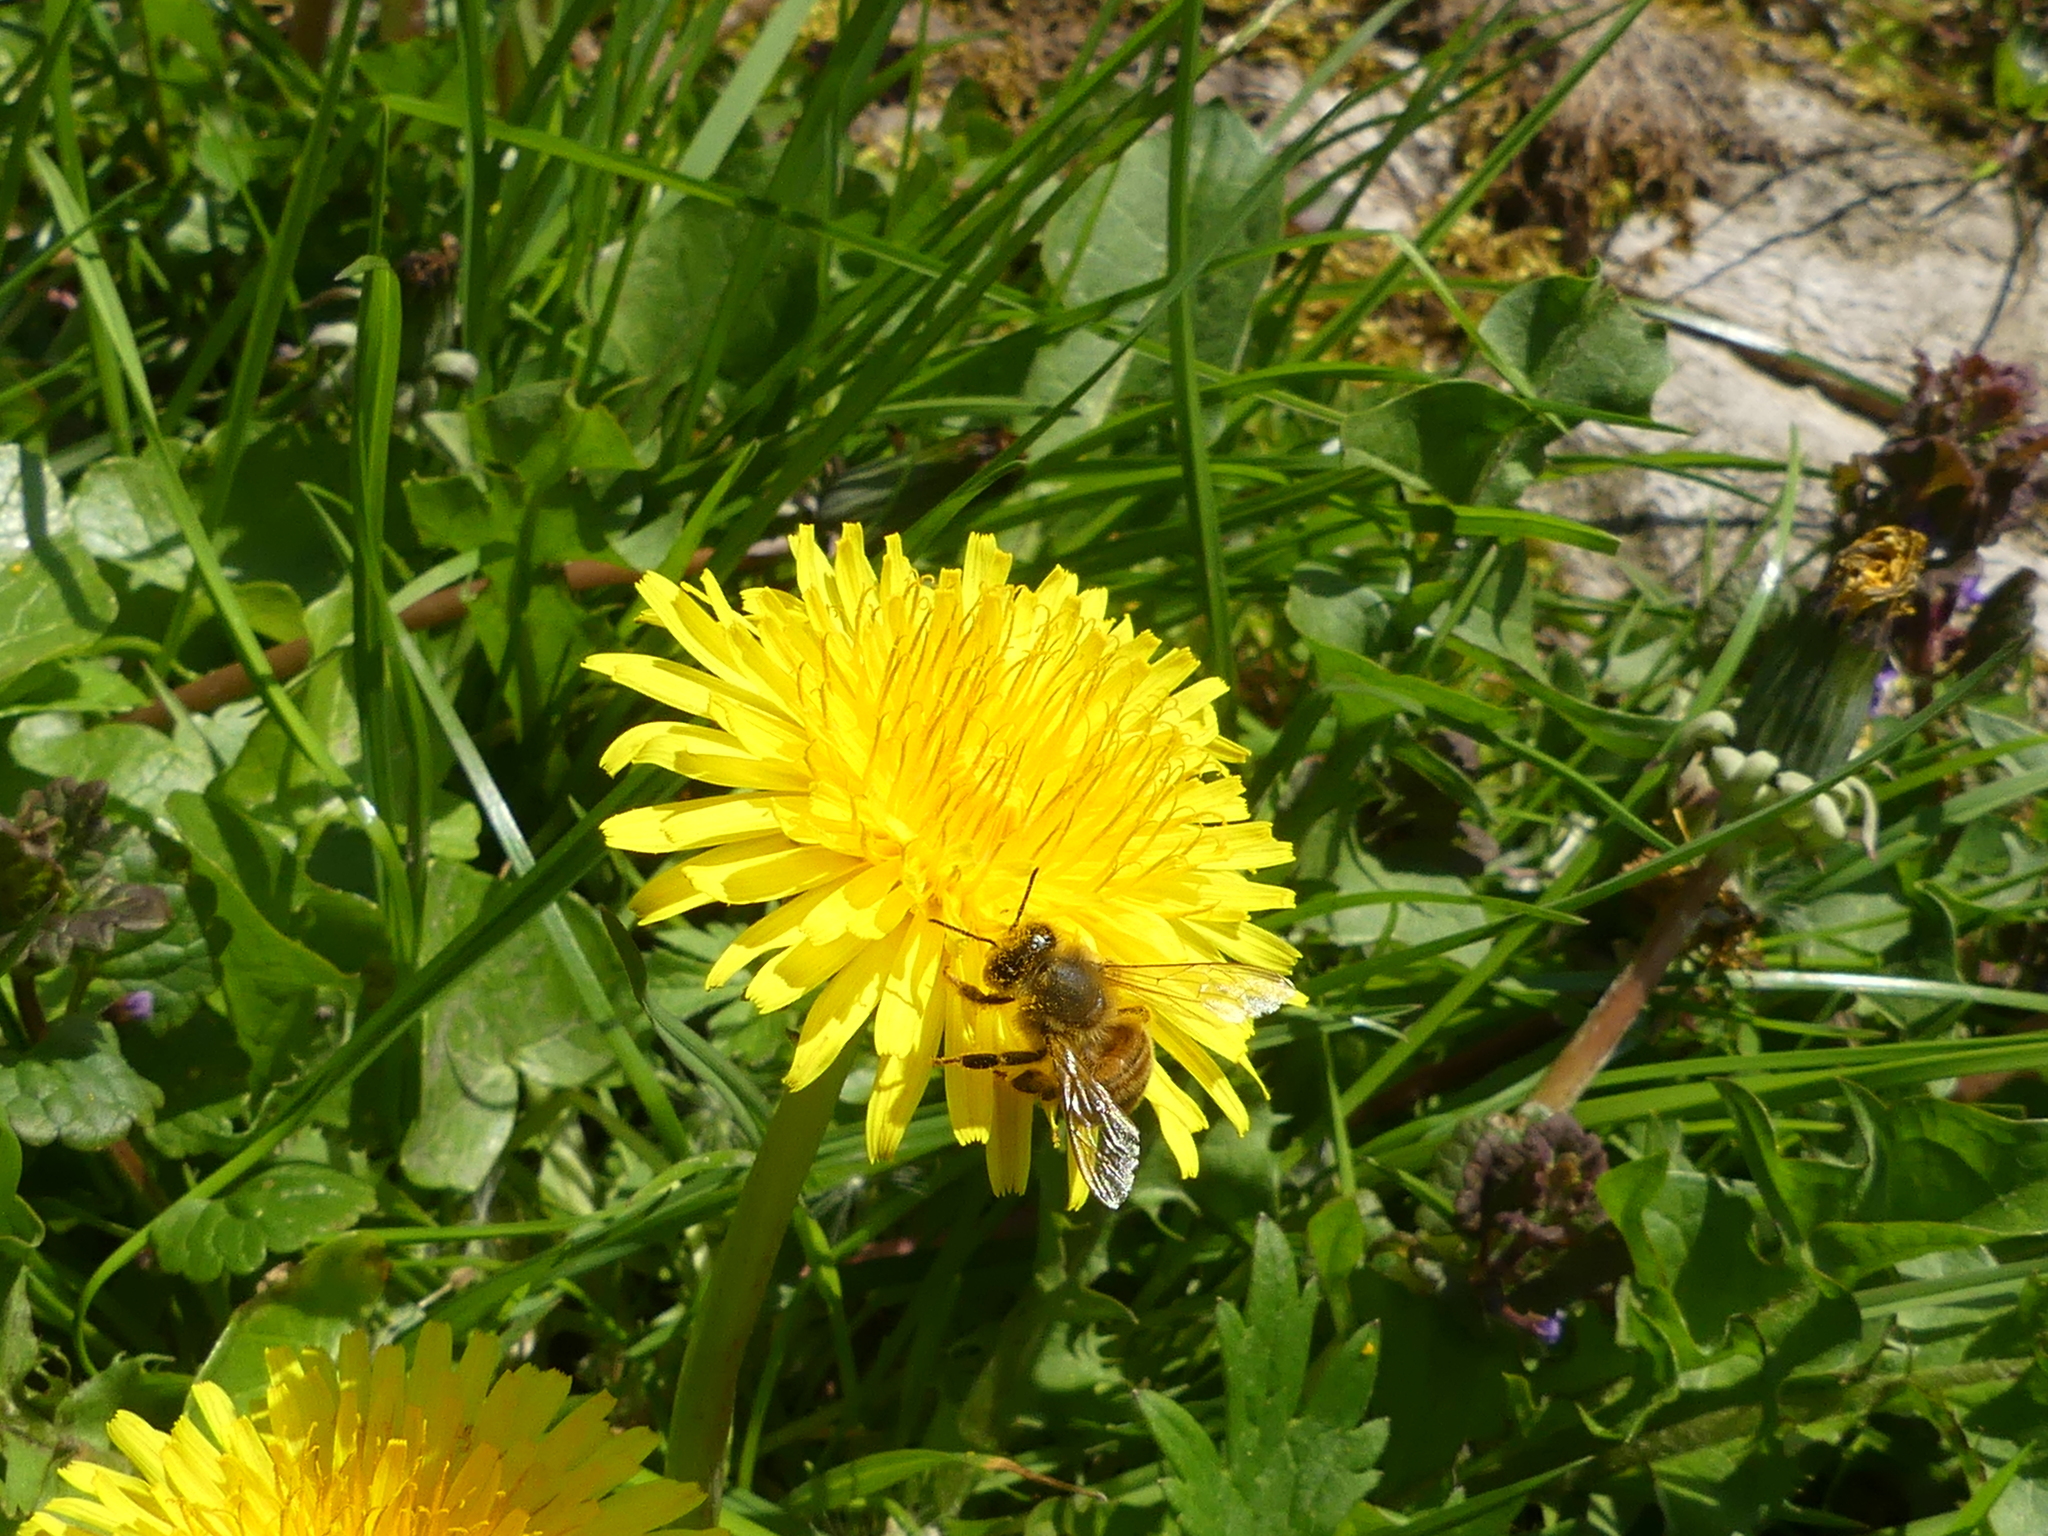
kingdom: Animalia
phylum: Arthropoda
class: Insecta
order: Hymenoptera
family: Apidae
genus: Apis
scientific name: Apis mellifera
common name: Honey bee
